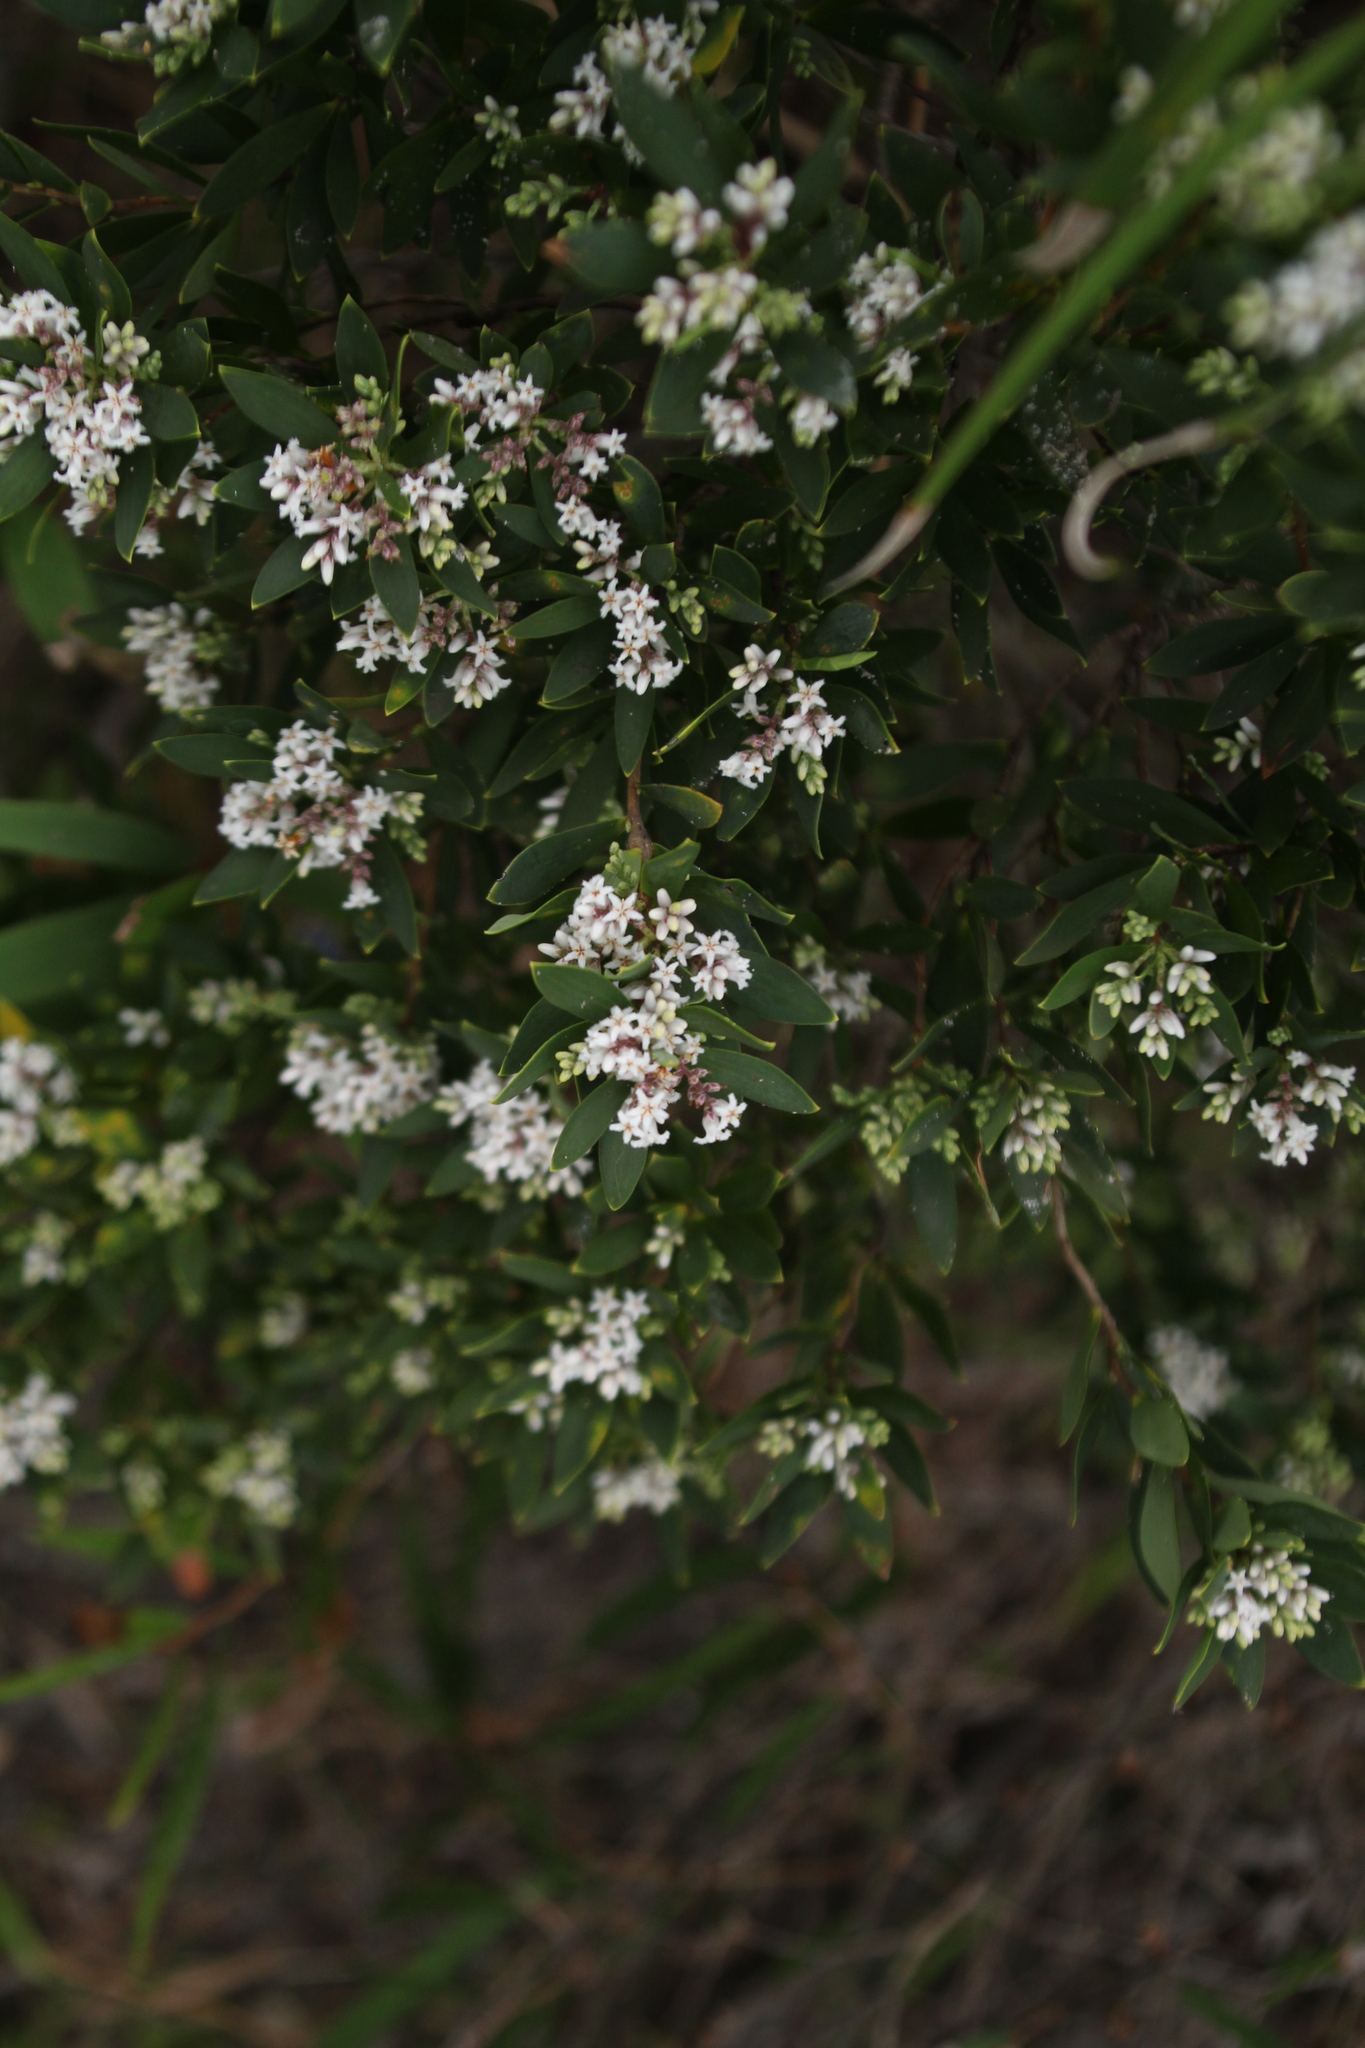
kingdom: Plantae
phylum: Tracheophyta
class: Magnoliopsida
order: Ericales
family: Ericaceae
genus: Leptecophylla
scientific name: Leptecophylla parvifolia
